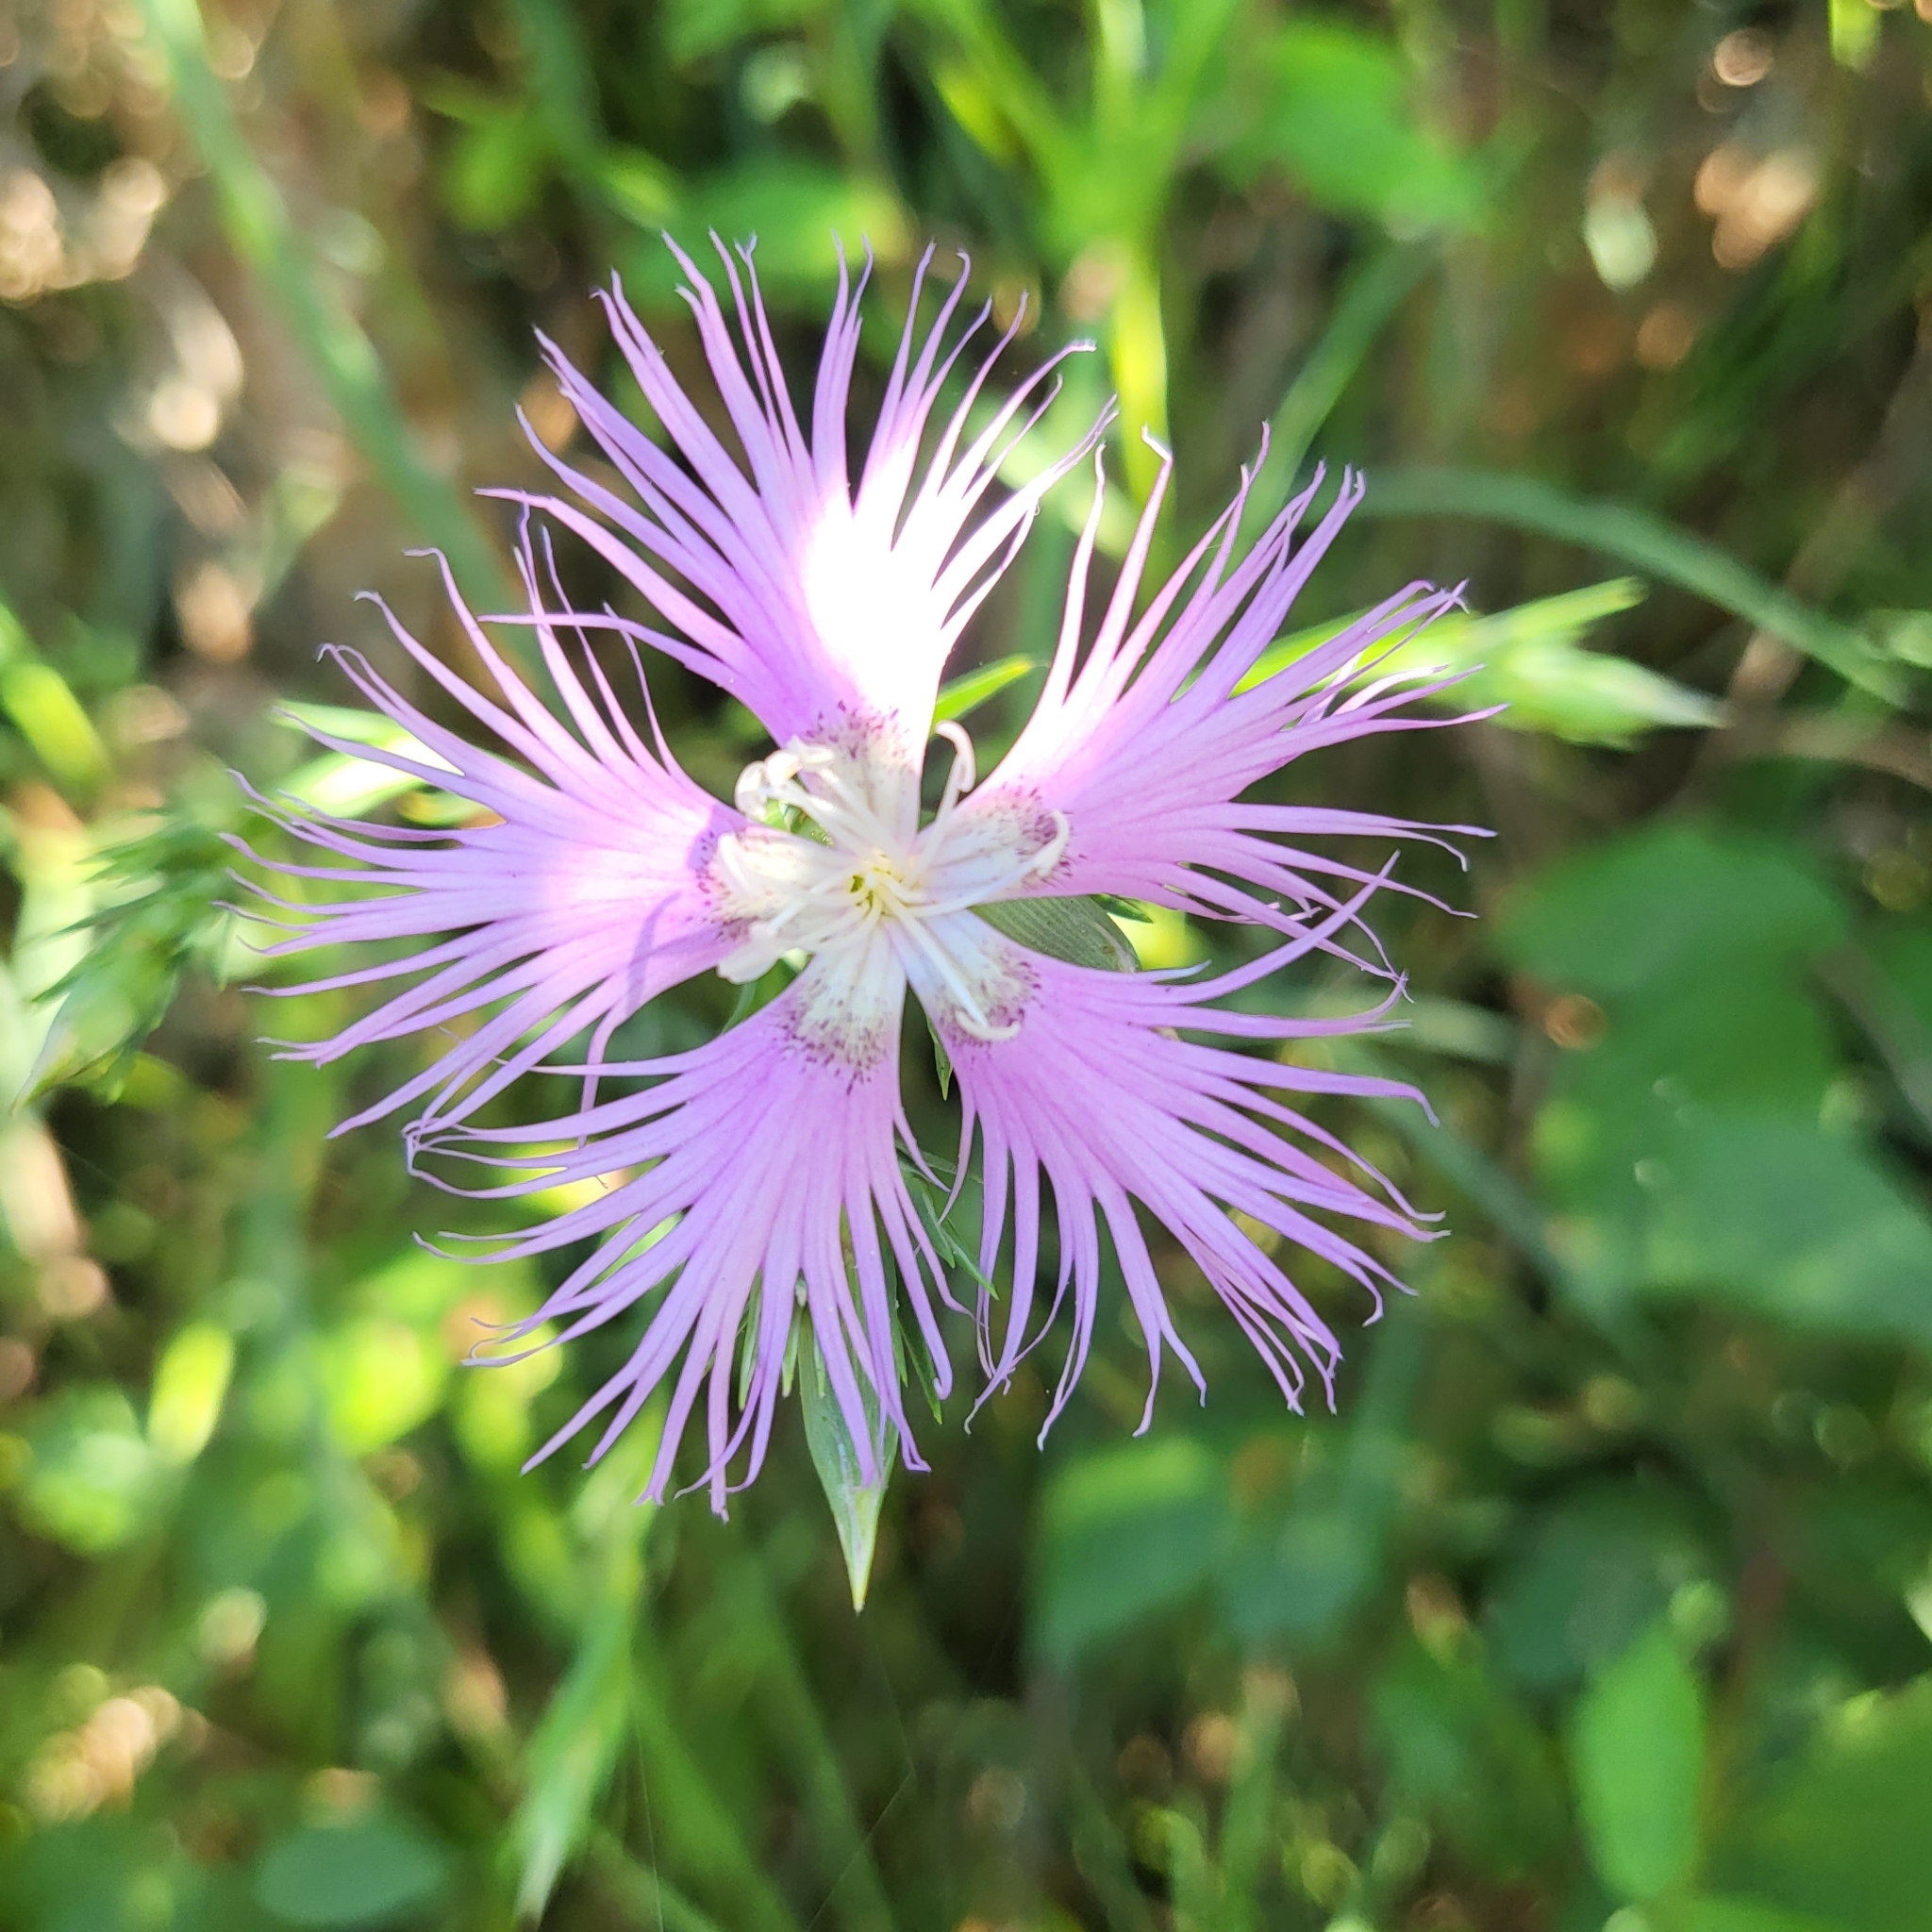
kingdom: Plantae
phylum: Tracheophyta
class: Magnoliopsida
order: Caryophyllales
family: Caryophyllaceae
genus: Dianthus
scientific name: Dianthus hyssopifolius
